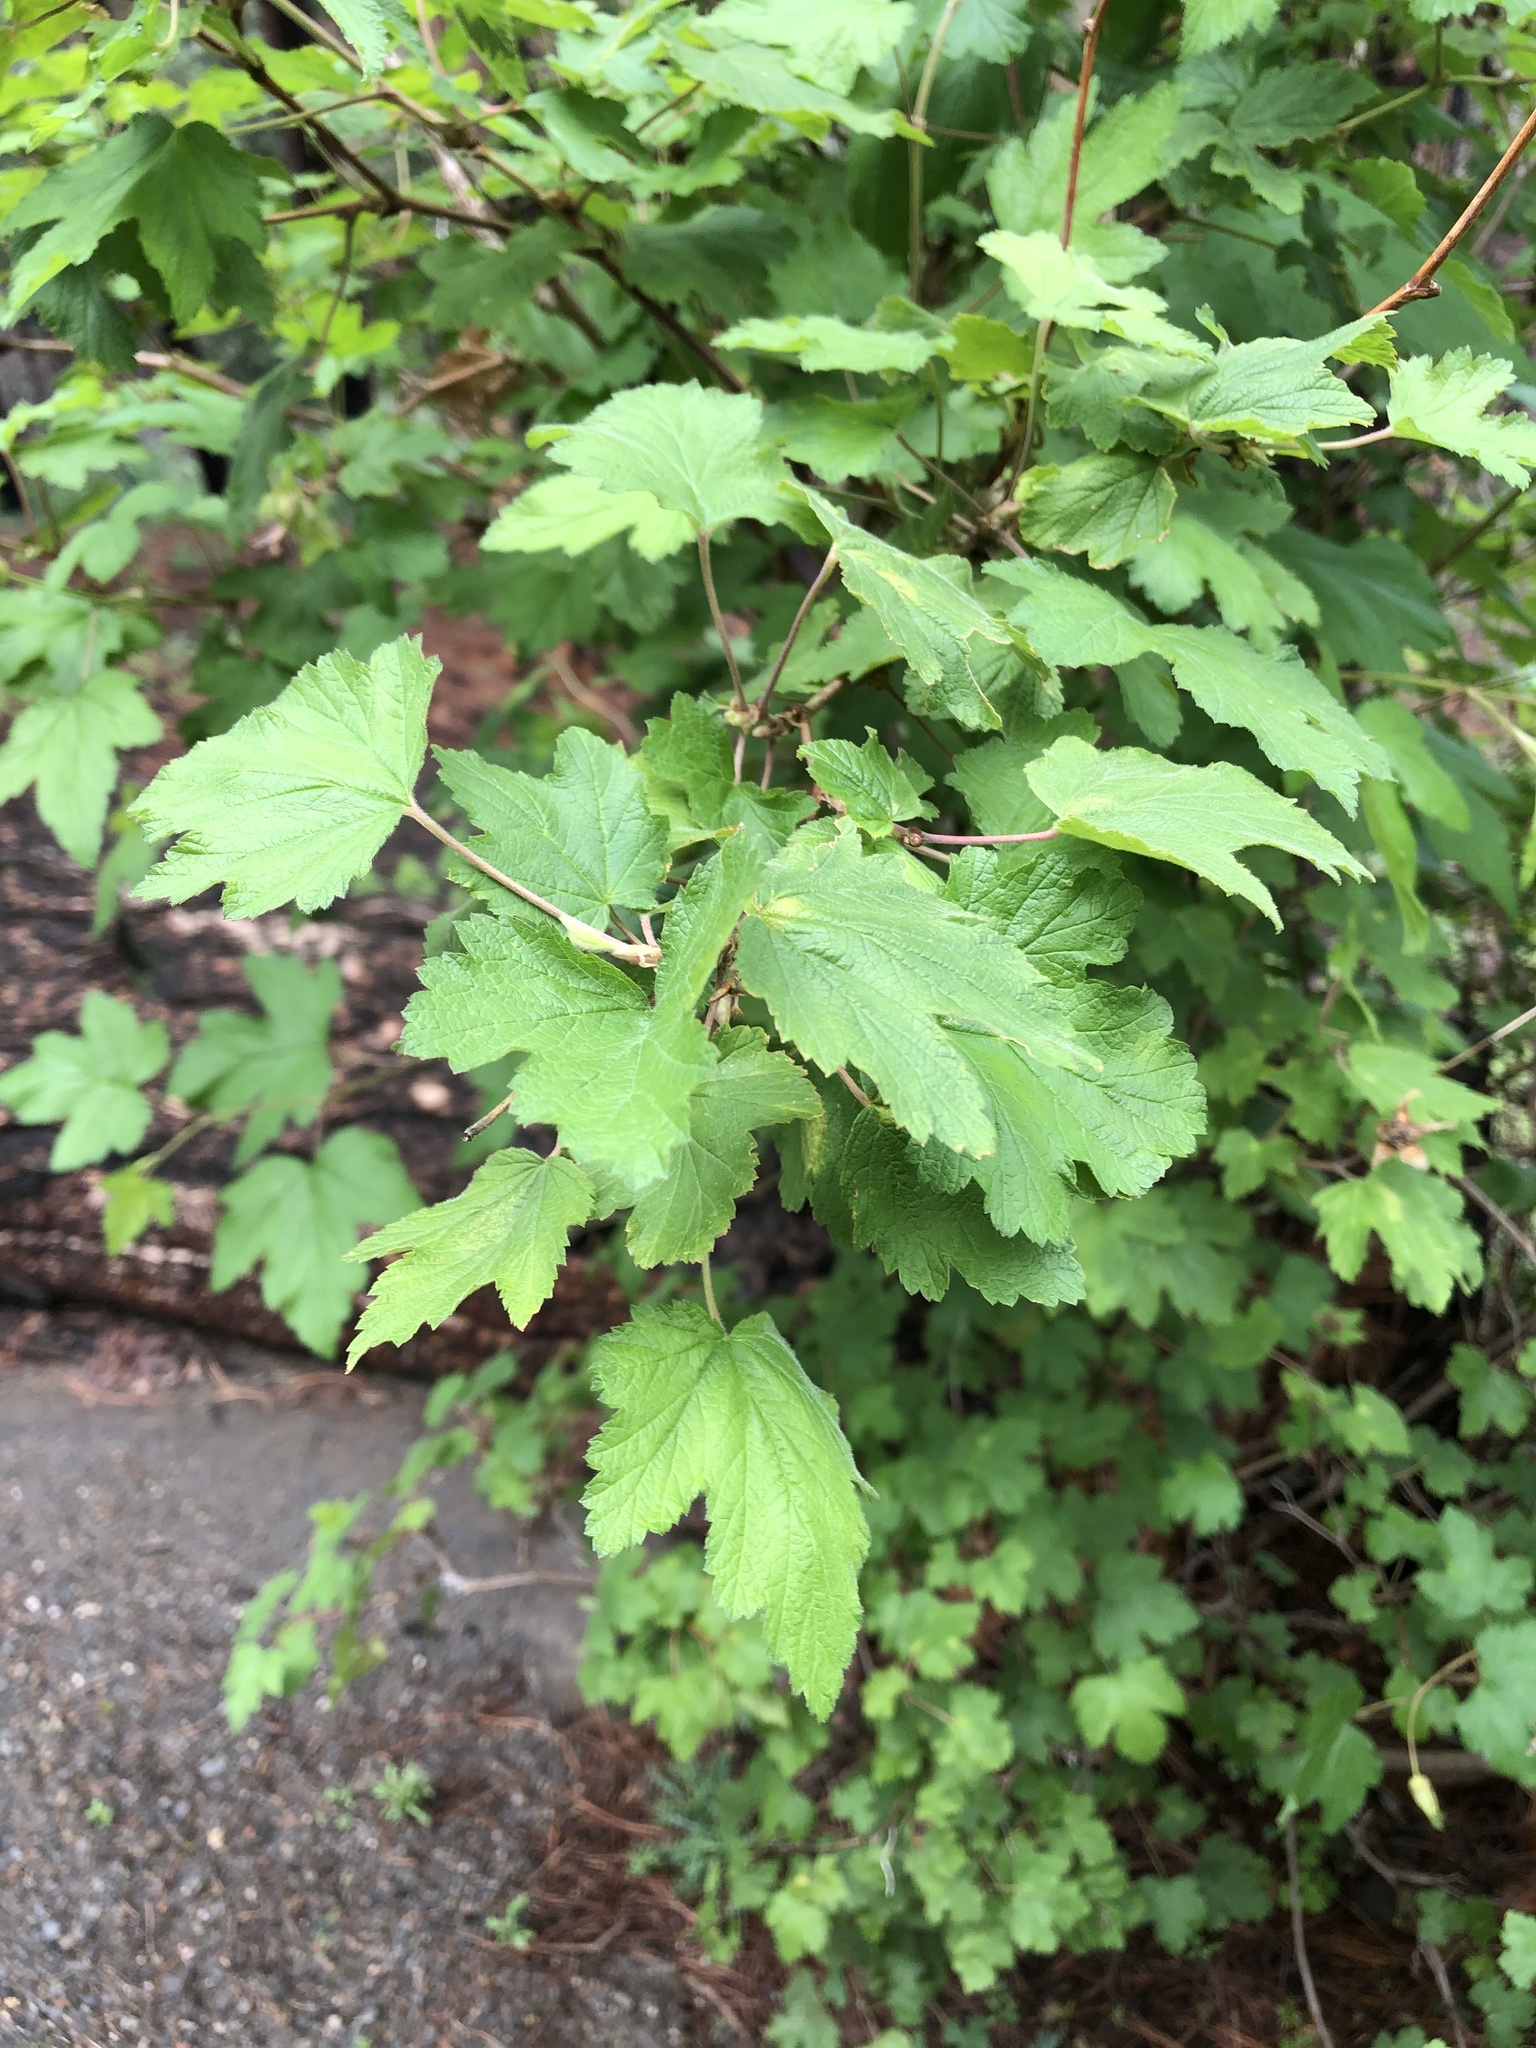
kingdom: Plantae
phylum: Tracheophyta
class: Magnoliopsida
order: Rosales
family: Rosaceae
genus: Rubus
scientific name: Rubus neomexicanus
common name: New mexico raspberry
